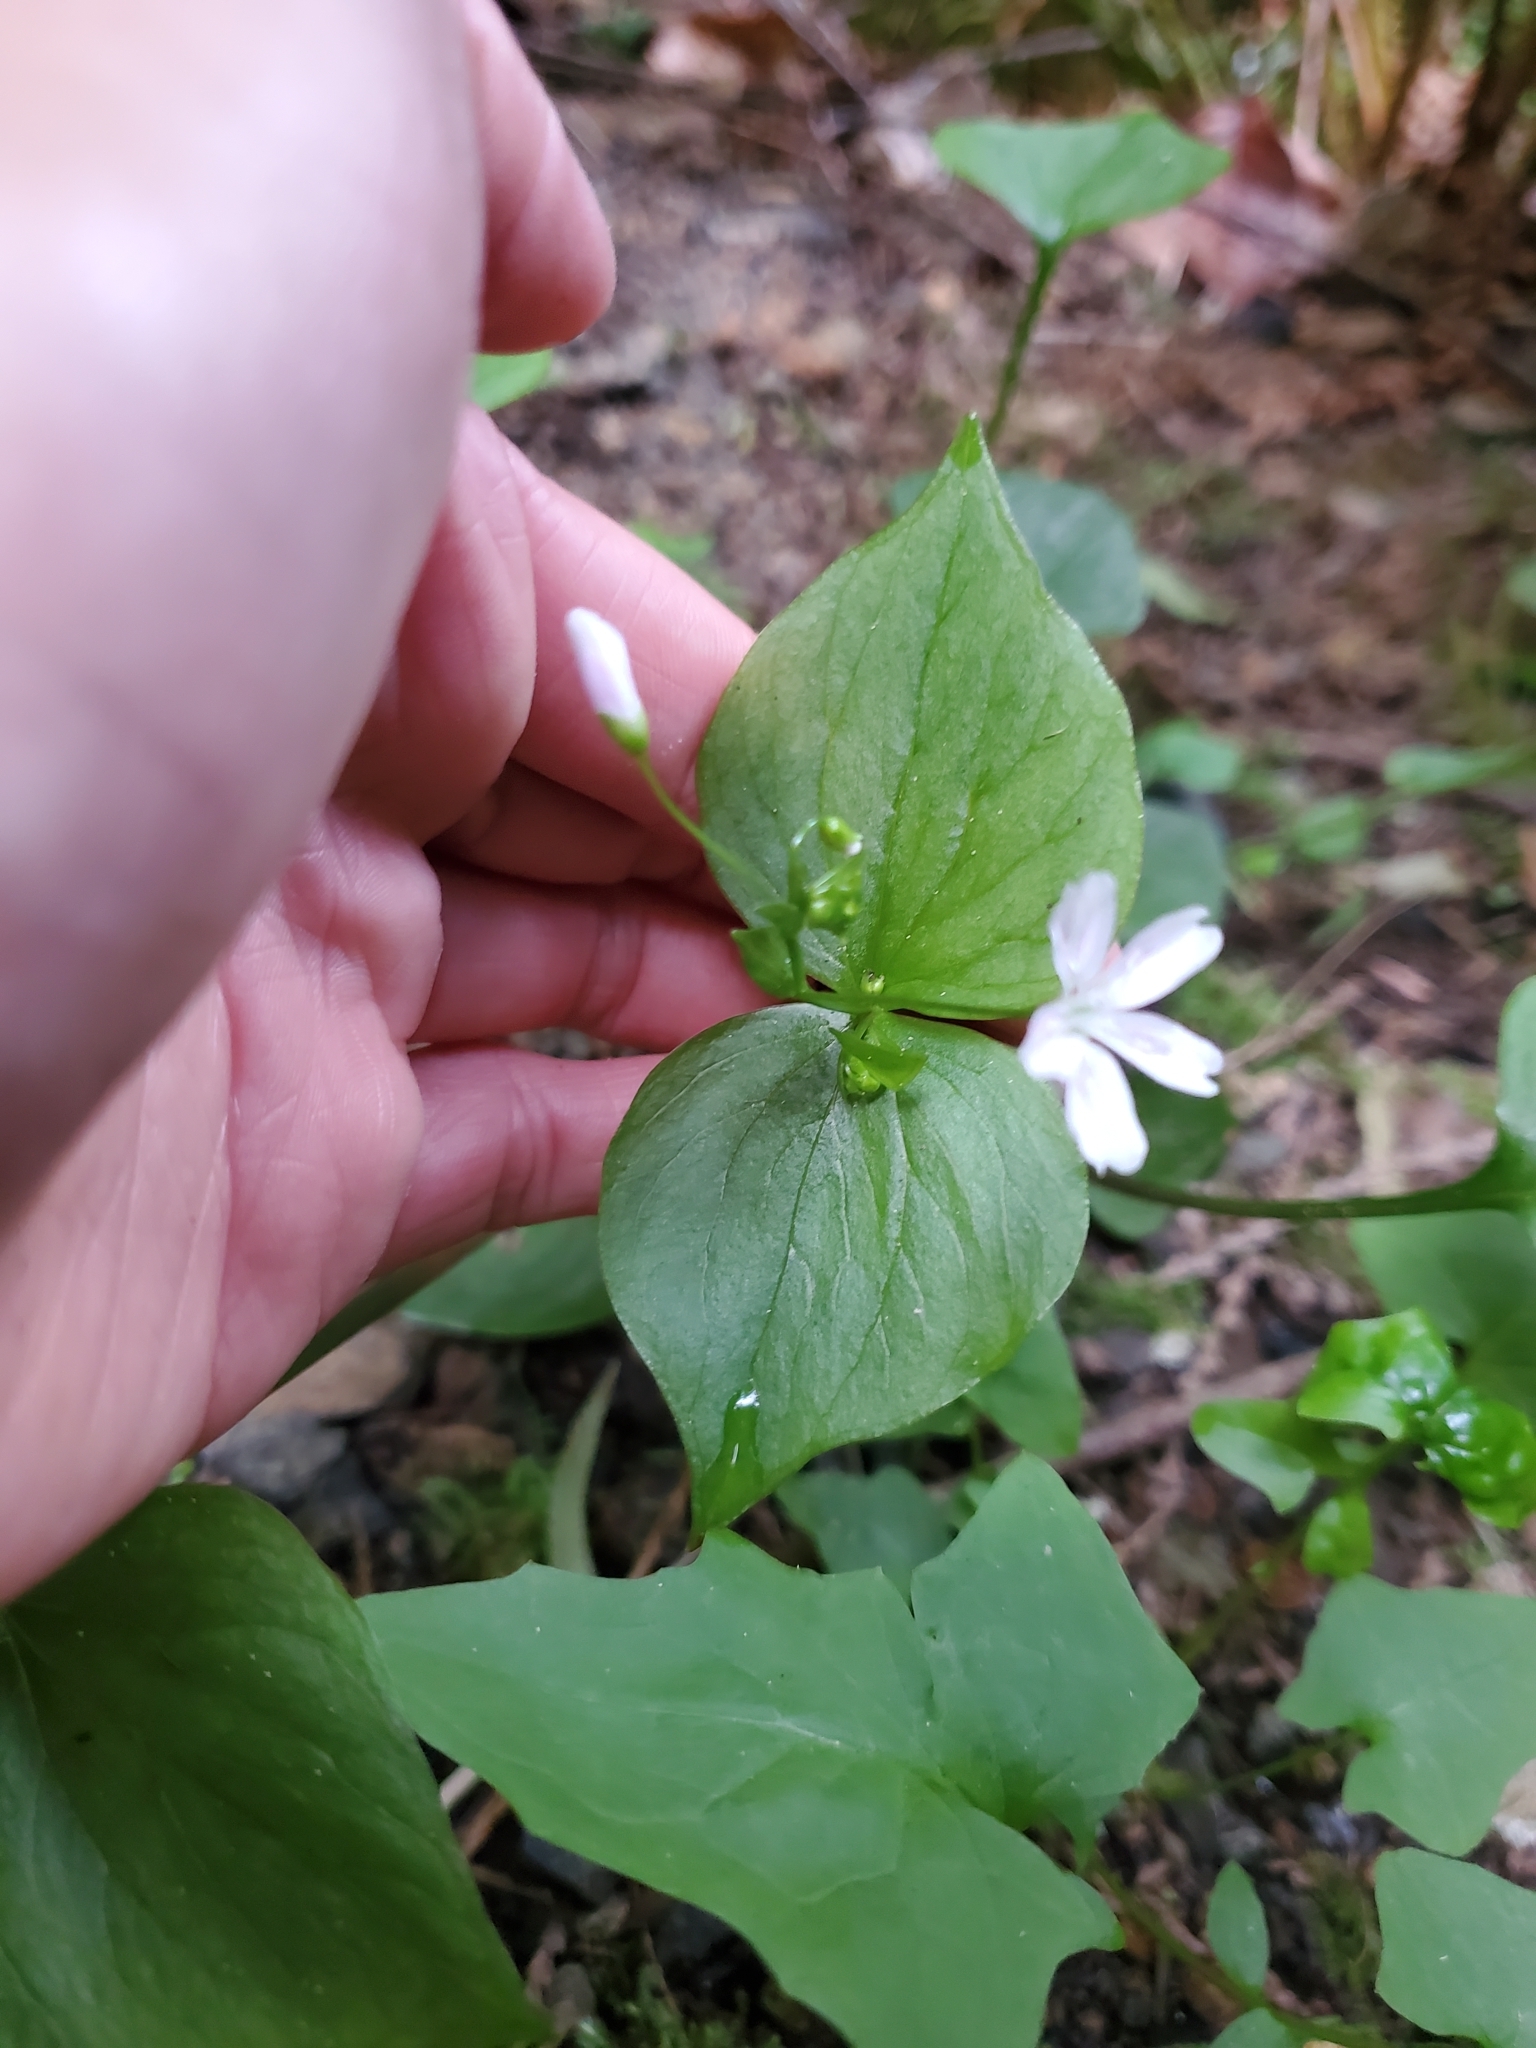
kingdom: Plantae
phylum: Tracheophyta
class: Magnoliopsida
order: Caryophyllales
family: Montiaceae
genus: Claytonia
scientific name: Claytonia sibirica
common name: Pink purslane
